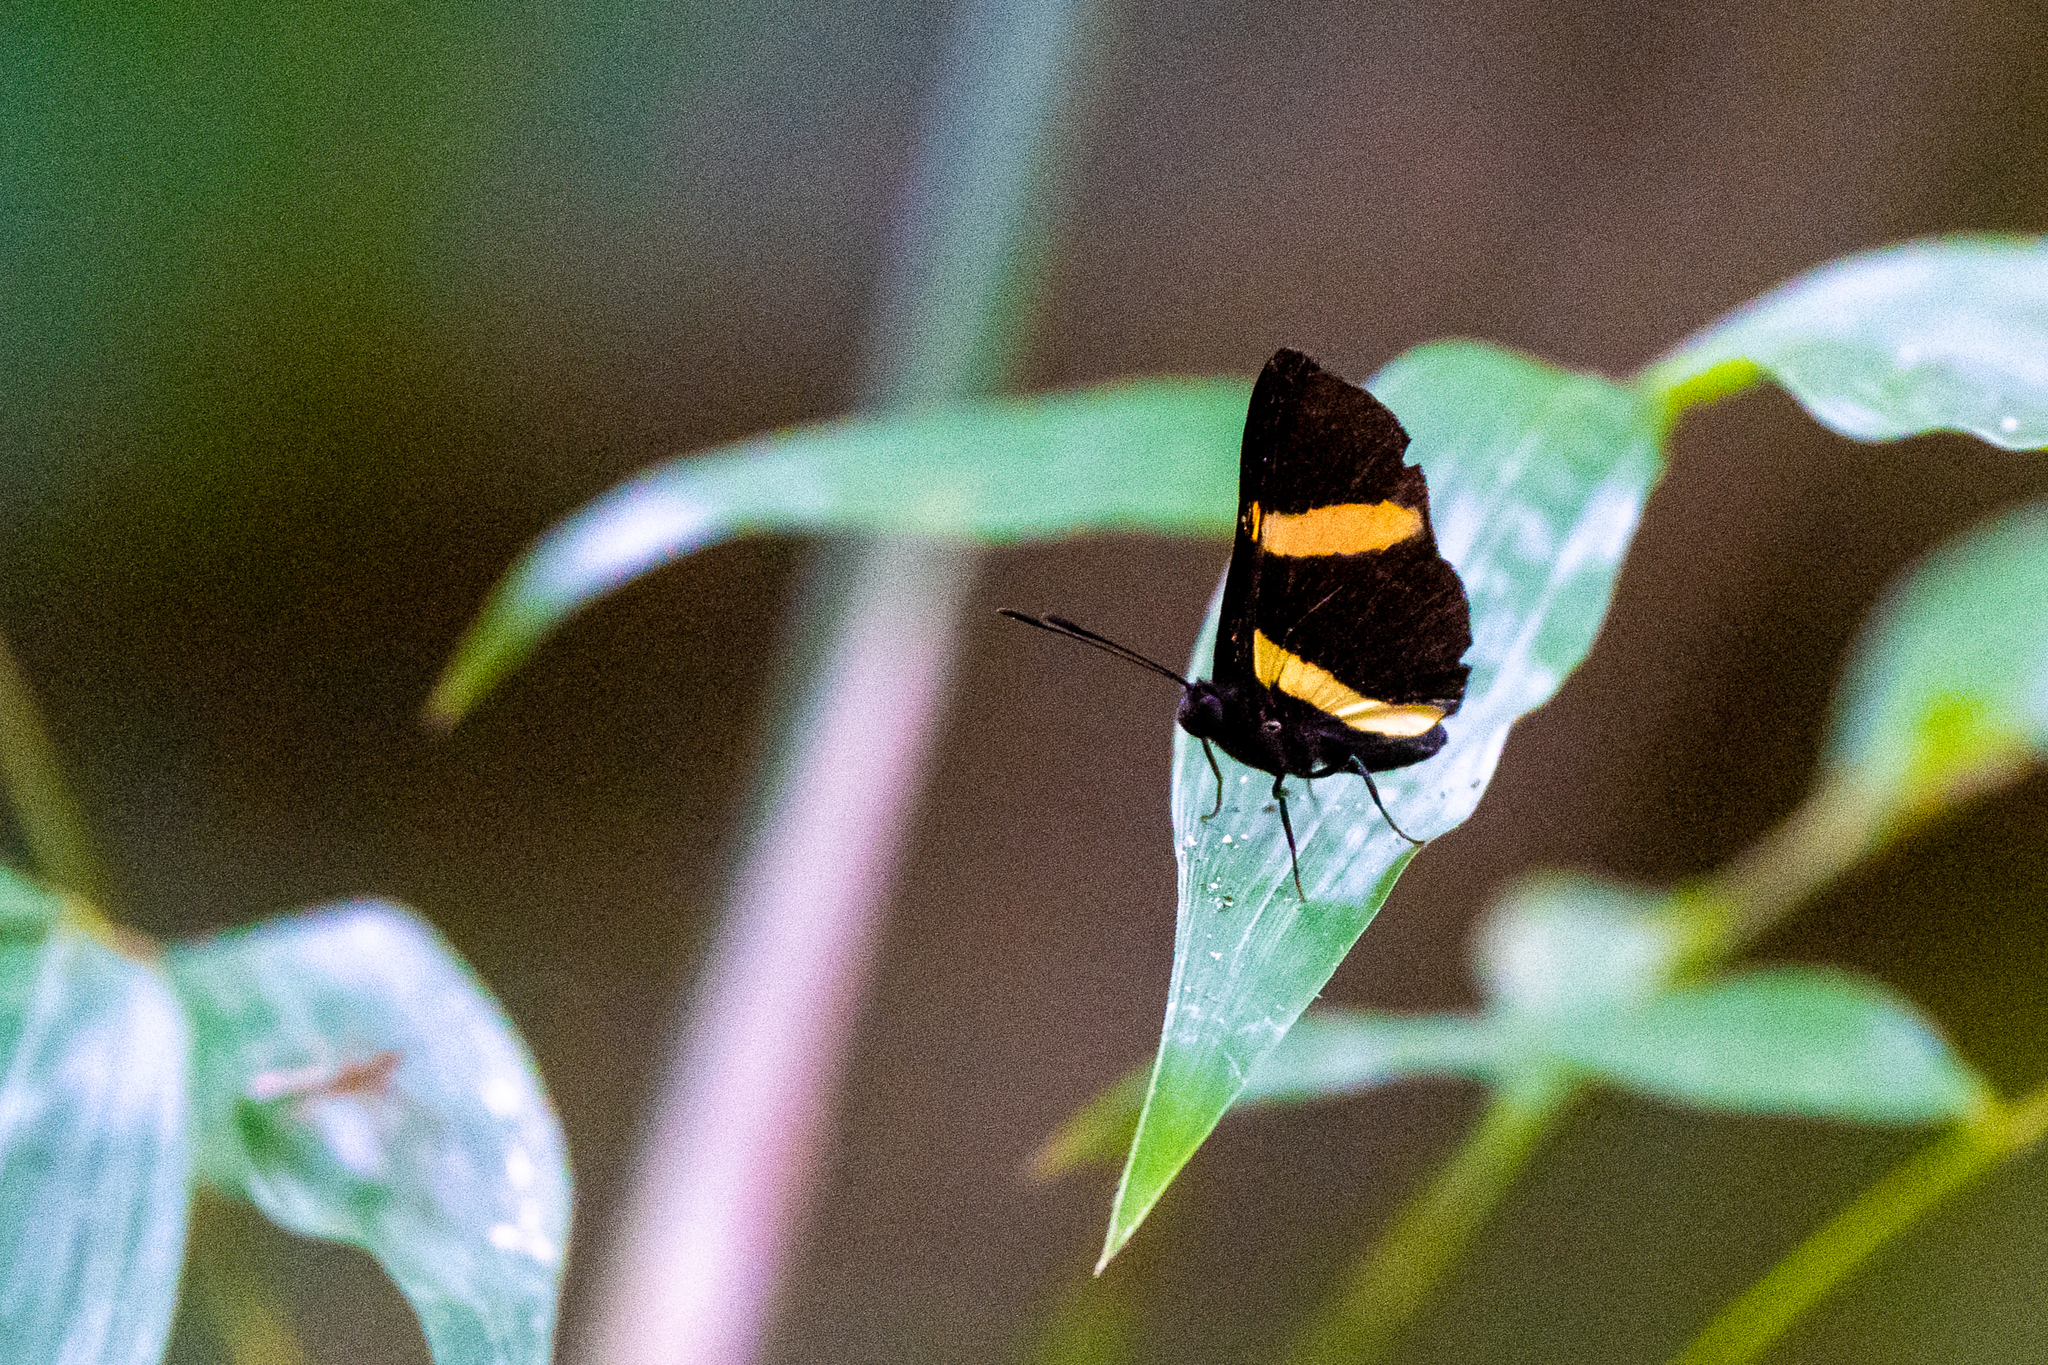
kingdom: Animalia
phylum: Arthropoda
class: Insecta
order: Lepidoptera
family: Lycaenidae
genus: Melanis
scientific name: Melanis agyrtus
